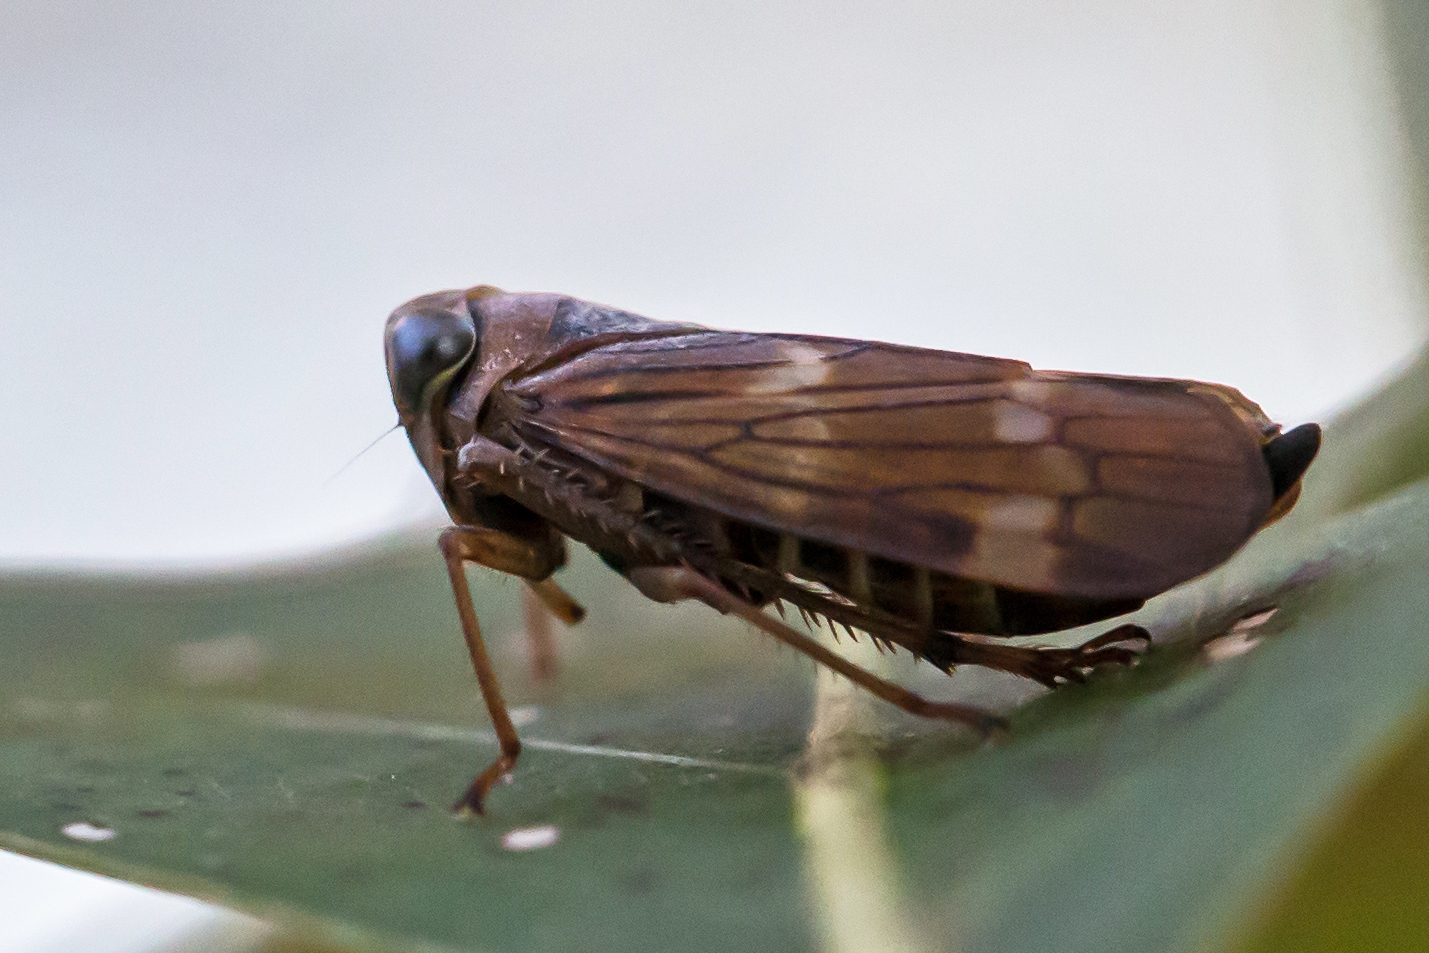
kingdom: Animalia
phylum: Arthropoda
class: Insecta
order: Hemiptera
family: Cicadellidae
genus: Jikradia
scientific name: Jikradia olitoria
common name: Coppery leafhopper
